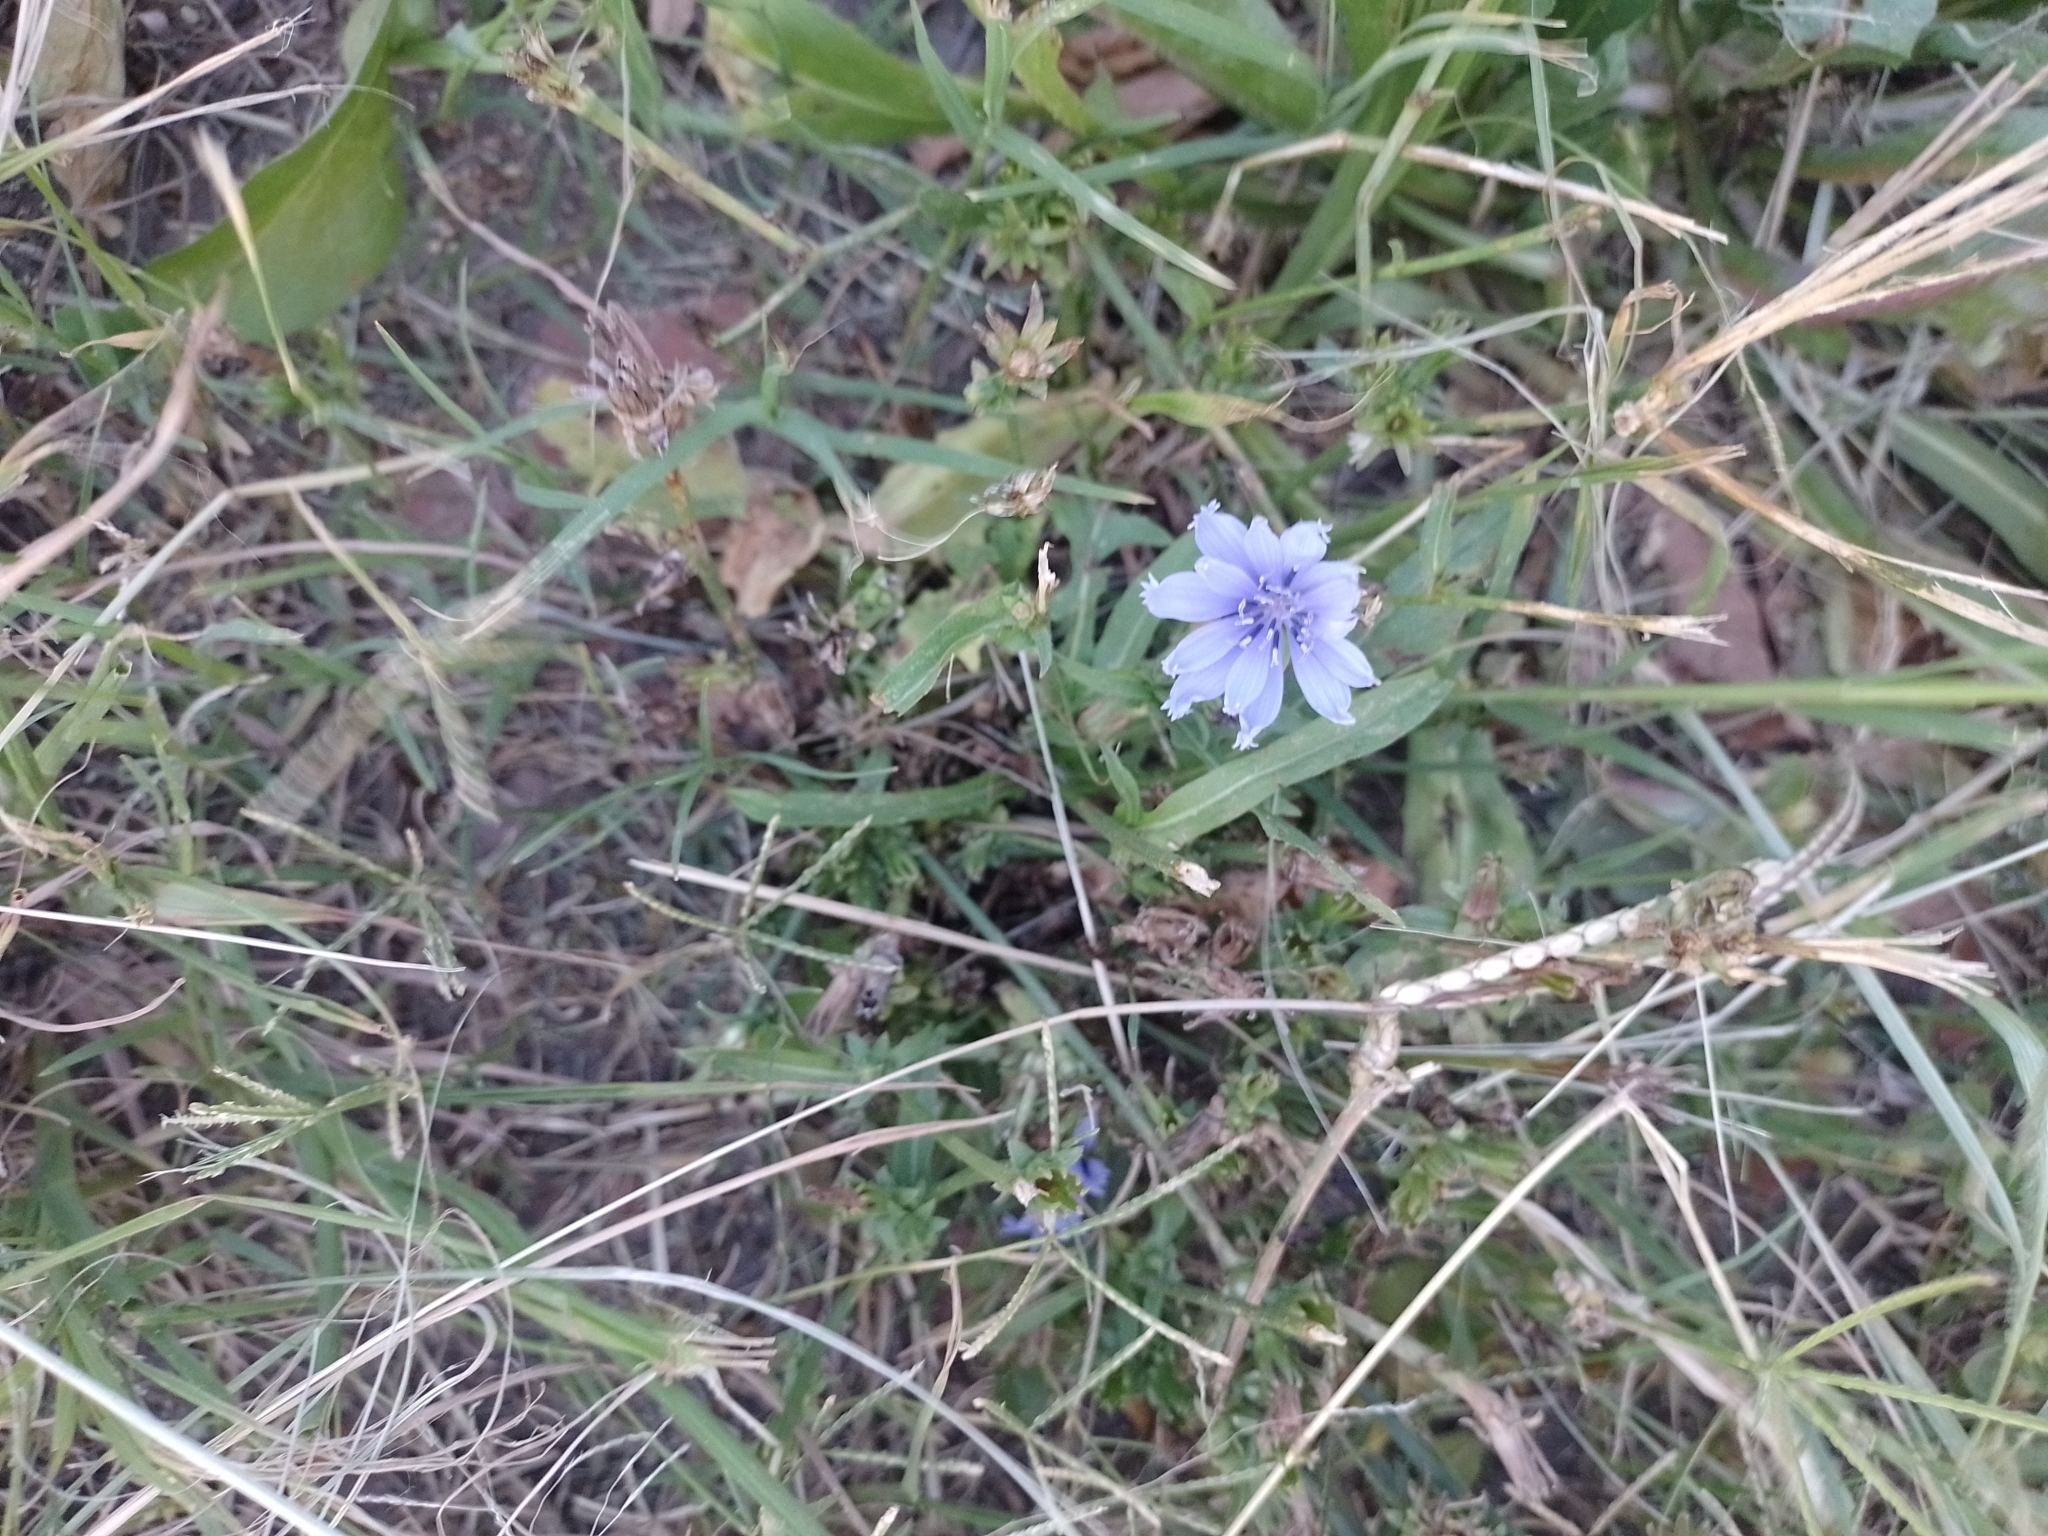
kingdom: Plantae
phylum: Tracheophyta
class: Magnoliopsida
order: Asterales
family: Asteraceae
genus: Cichorium
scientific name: Cichorium intybus
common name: Chicory
